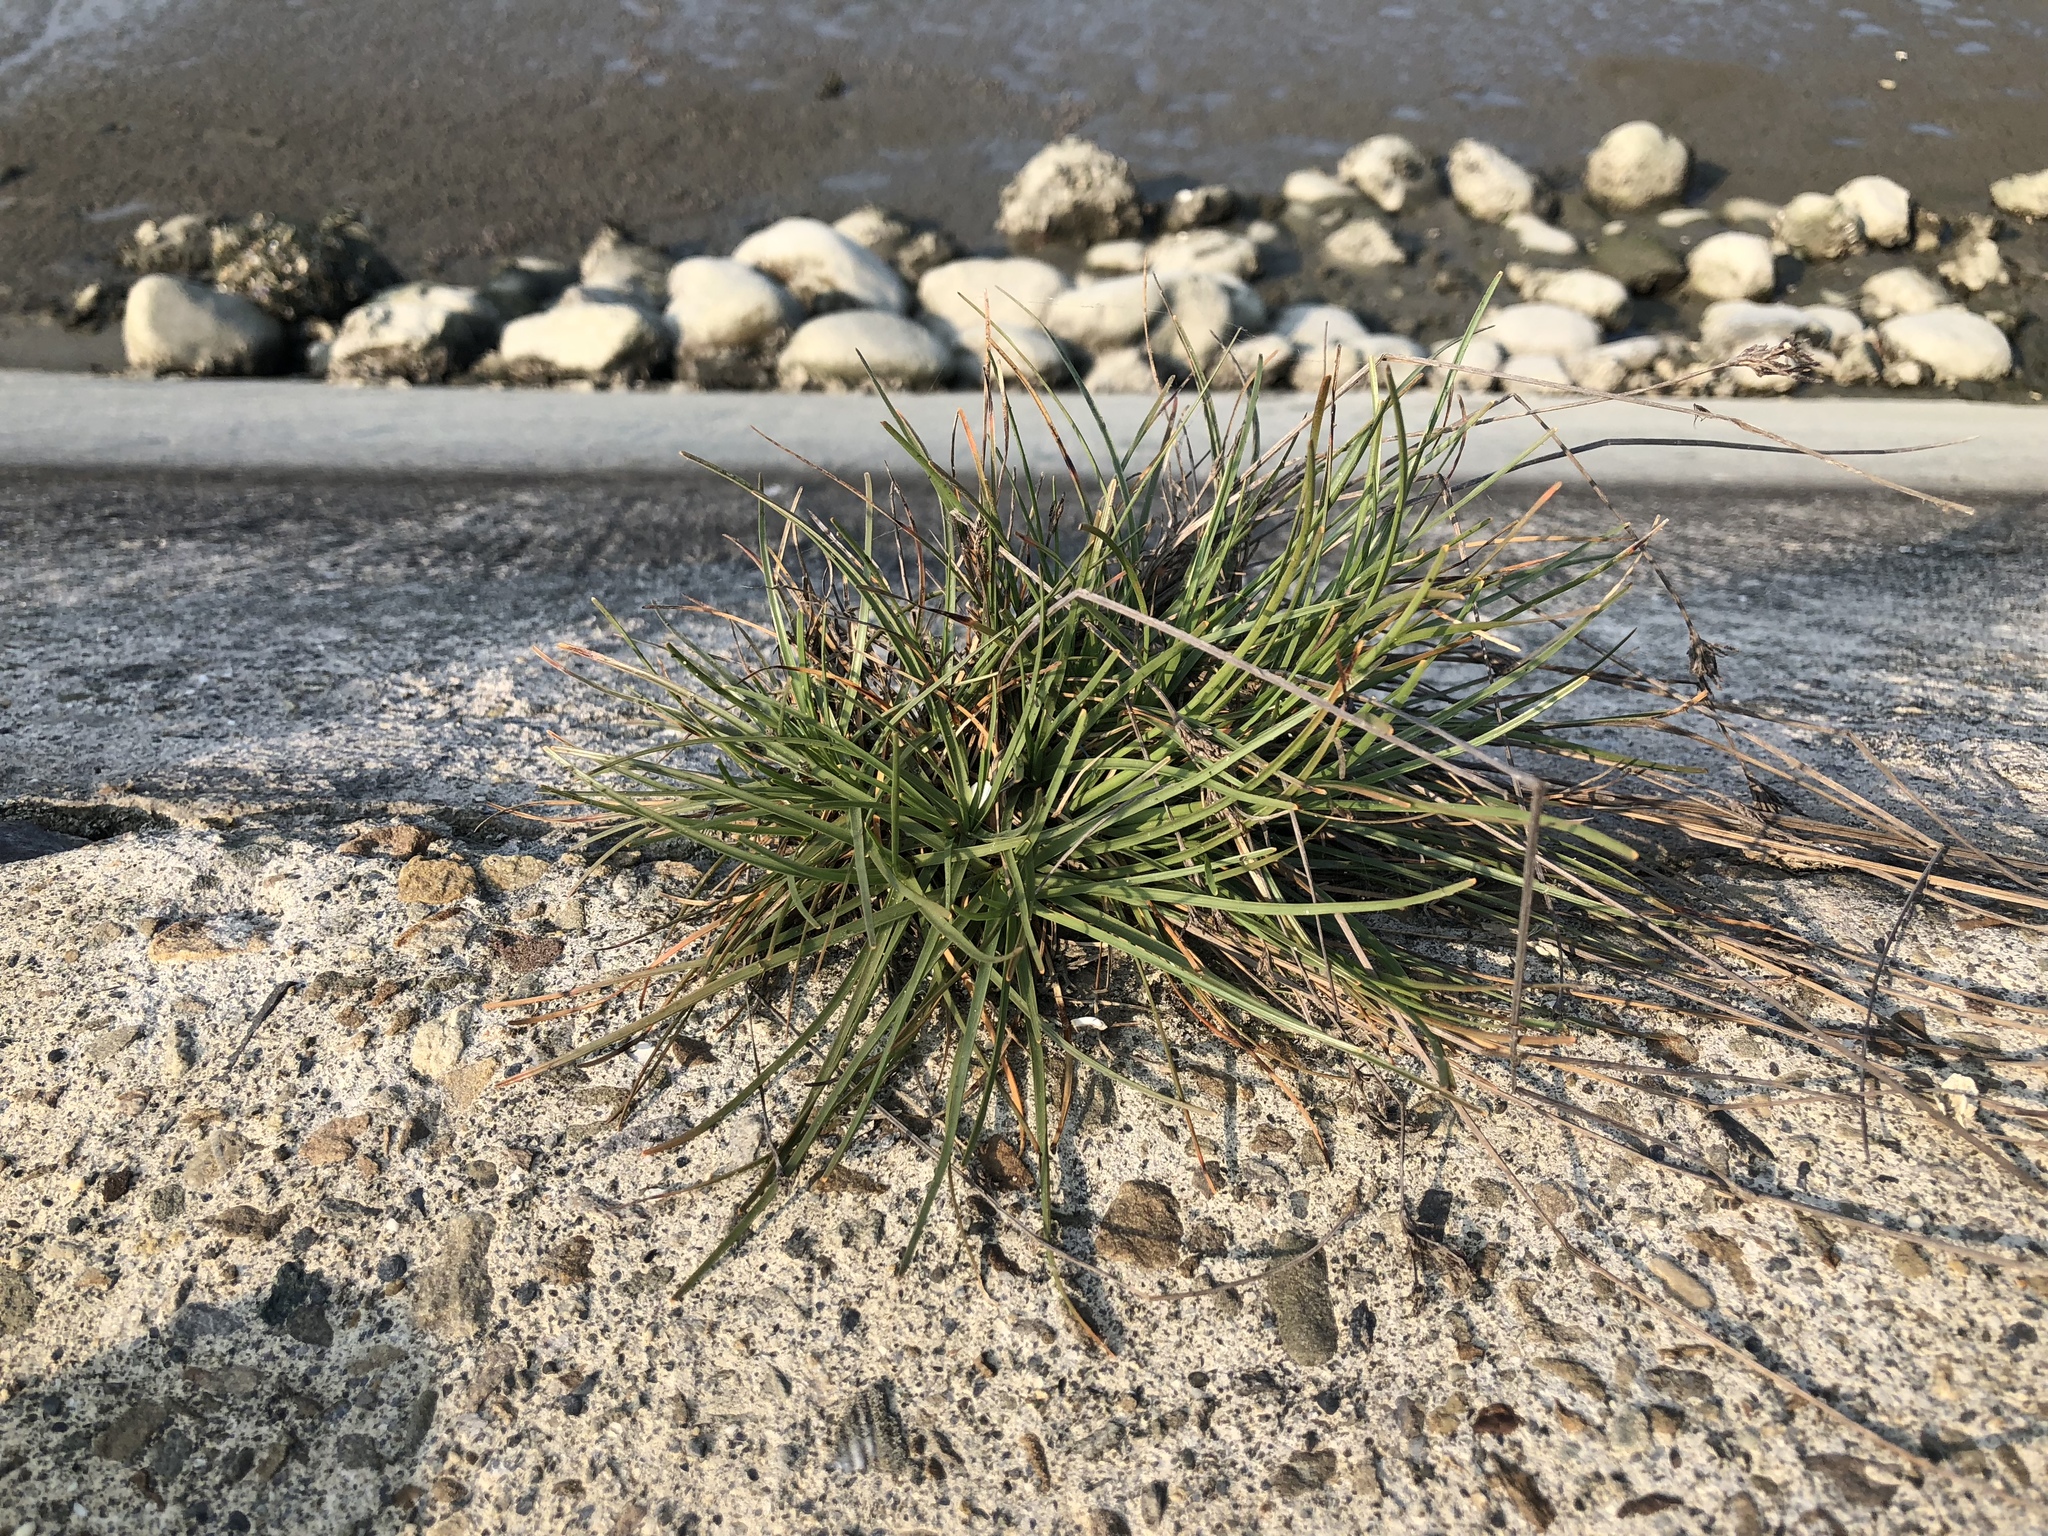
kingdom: Plantae
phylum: Tracheophyta
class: Liliopsida
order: Poales
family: Cyperaceae
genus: Fimbristylis
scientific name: Fimbristylis cymosa
